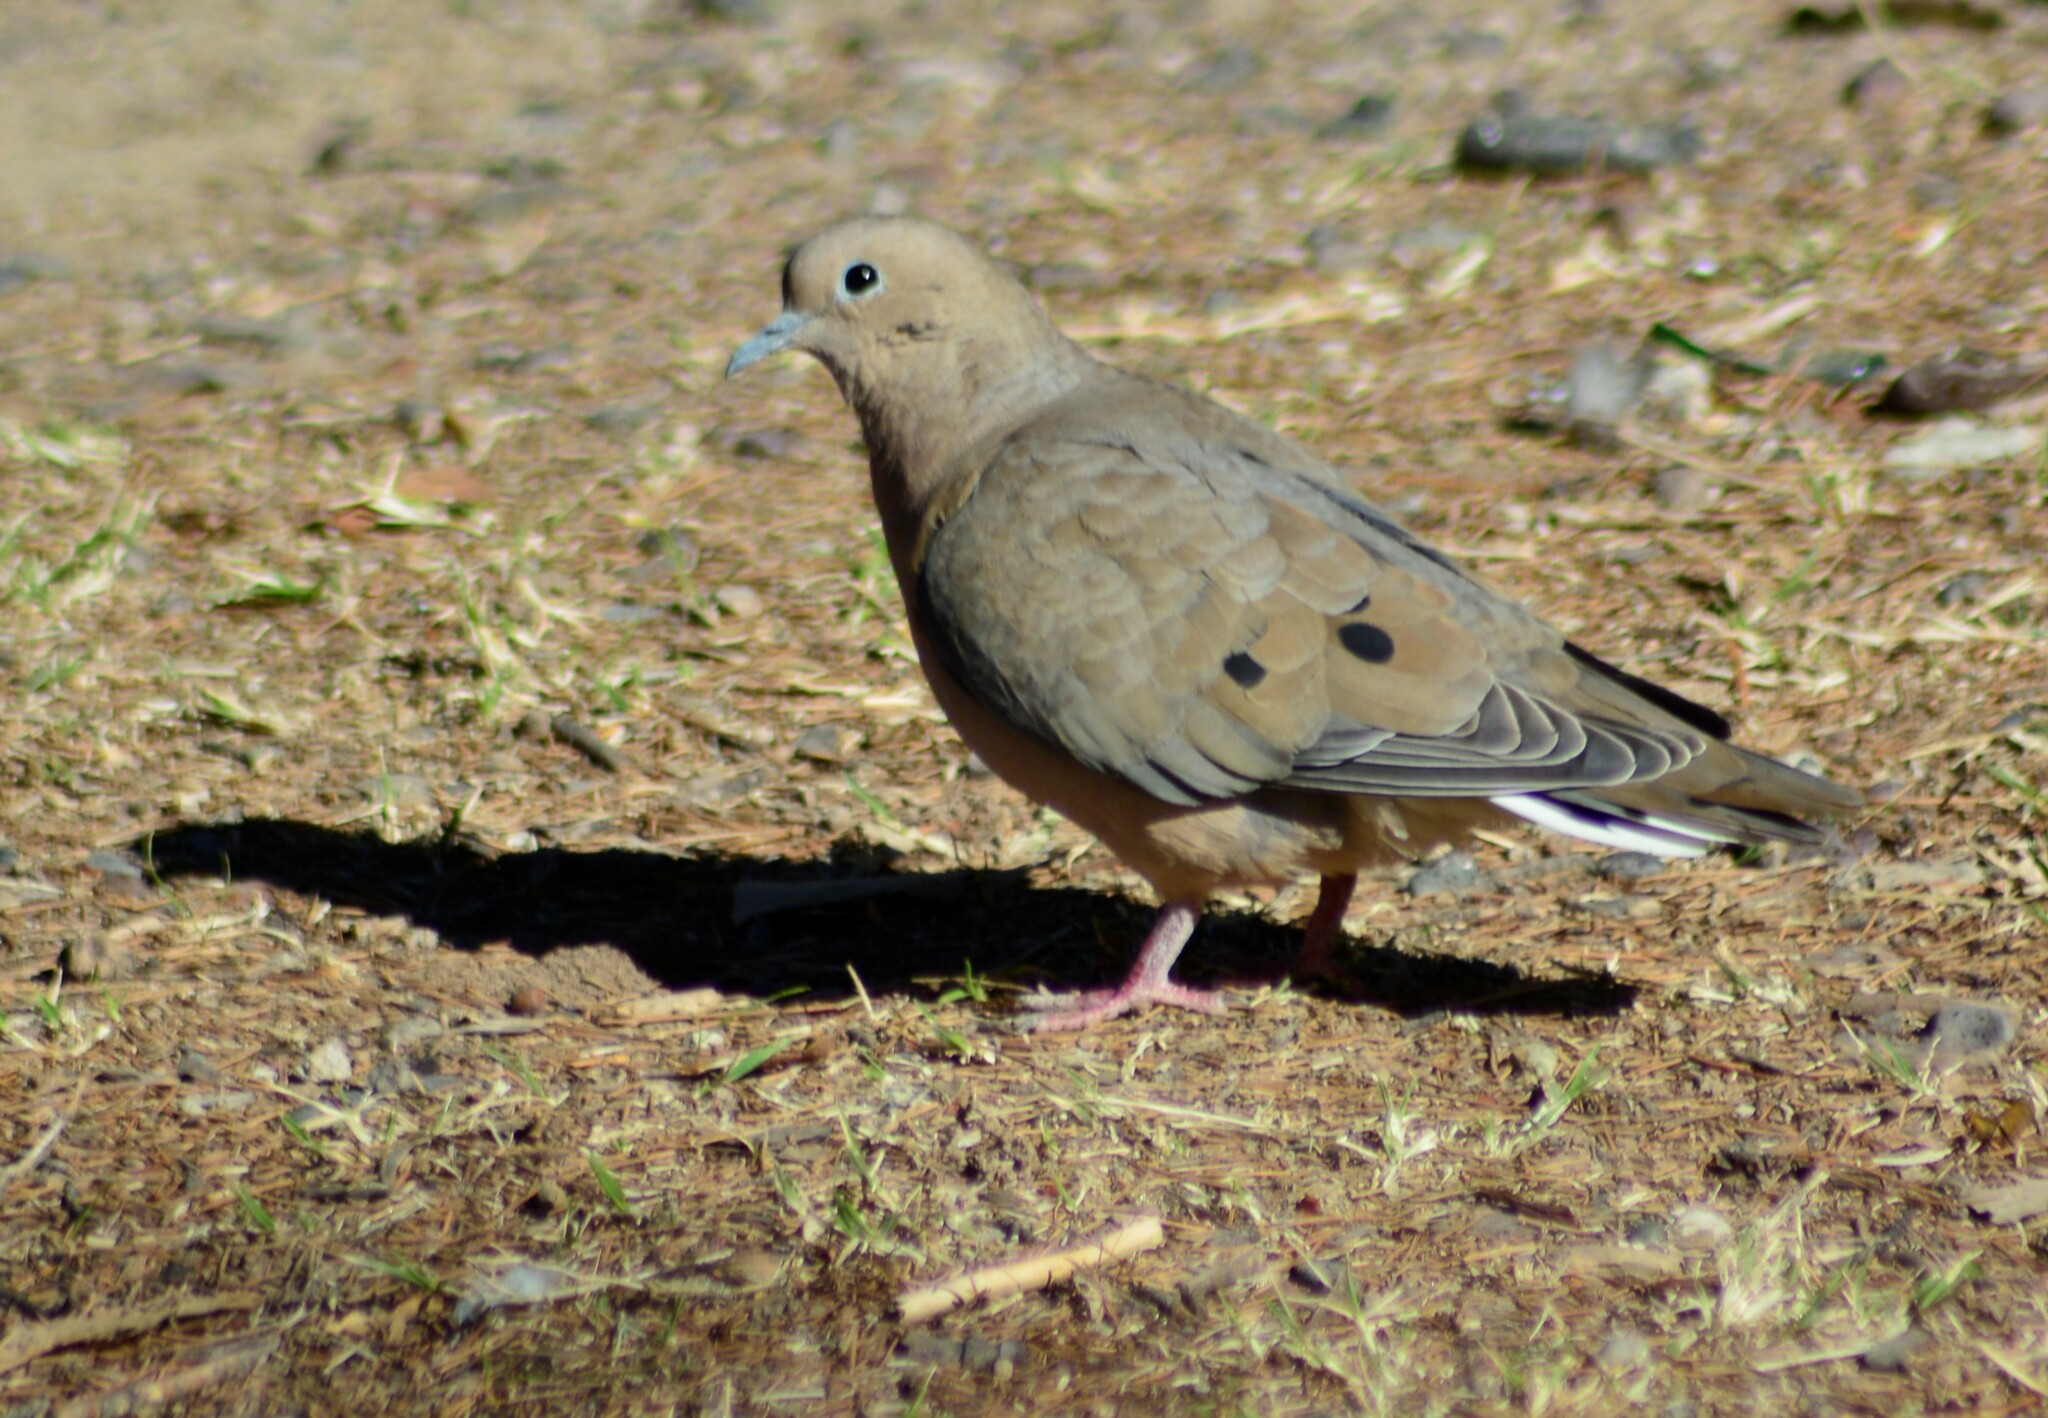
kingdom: Animalia
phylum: Chordata
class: Aves
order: Columbiformes
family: Columbidae
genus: Zenaida
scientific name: Zenaida auriculata
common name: Eared dove
